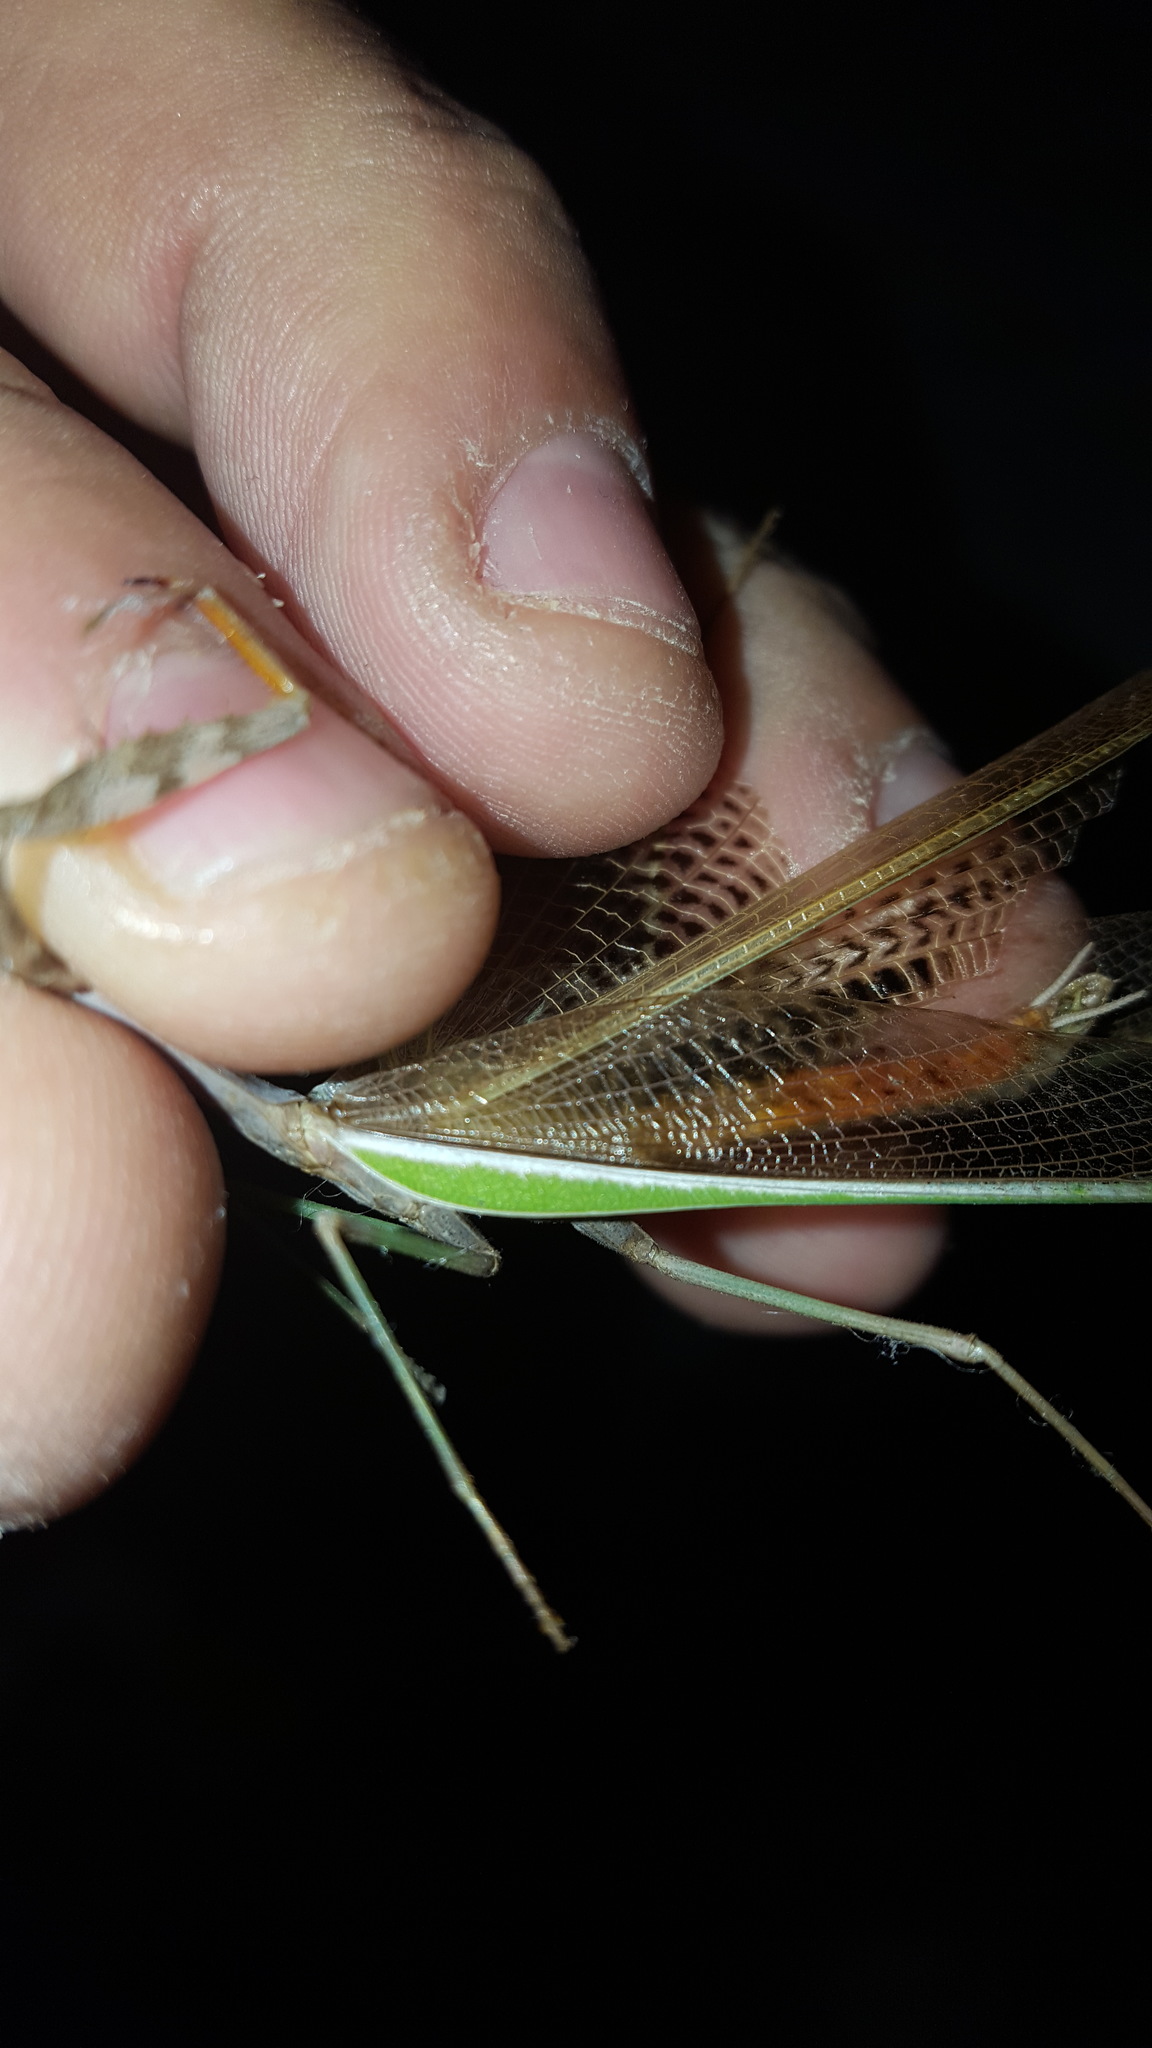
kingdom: Animalia
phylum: Arthropoda
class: Insecta
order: Mantodea
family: Mantidae
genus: Stagmomantis
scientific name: Stagmomantis limbata
